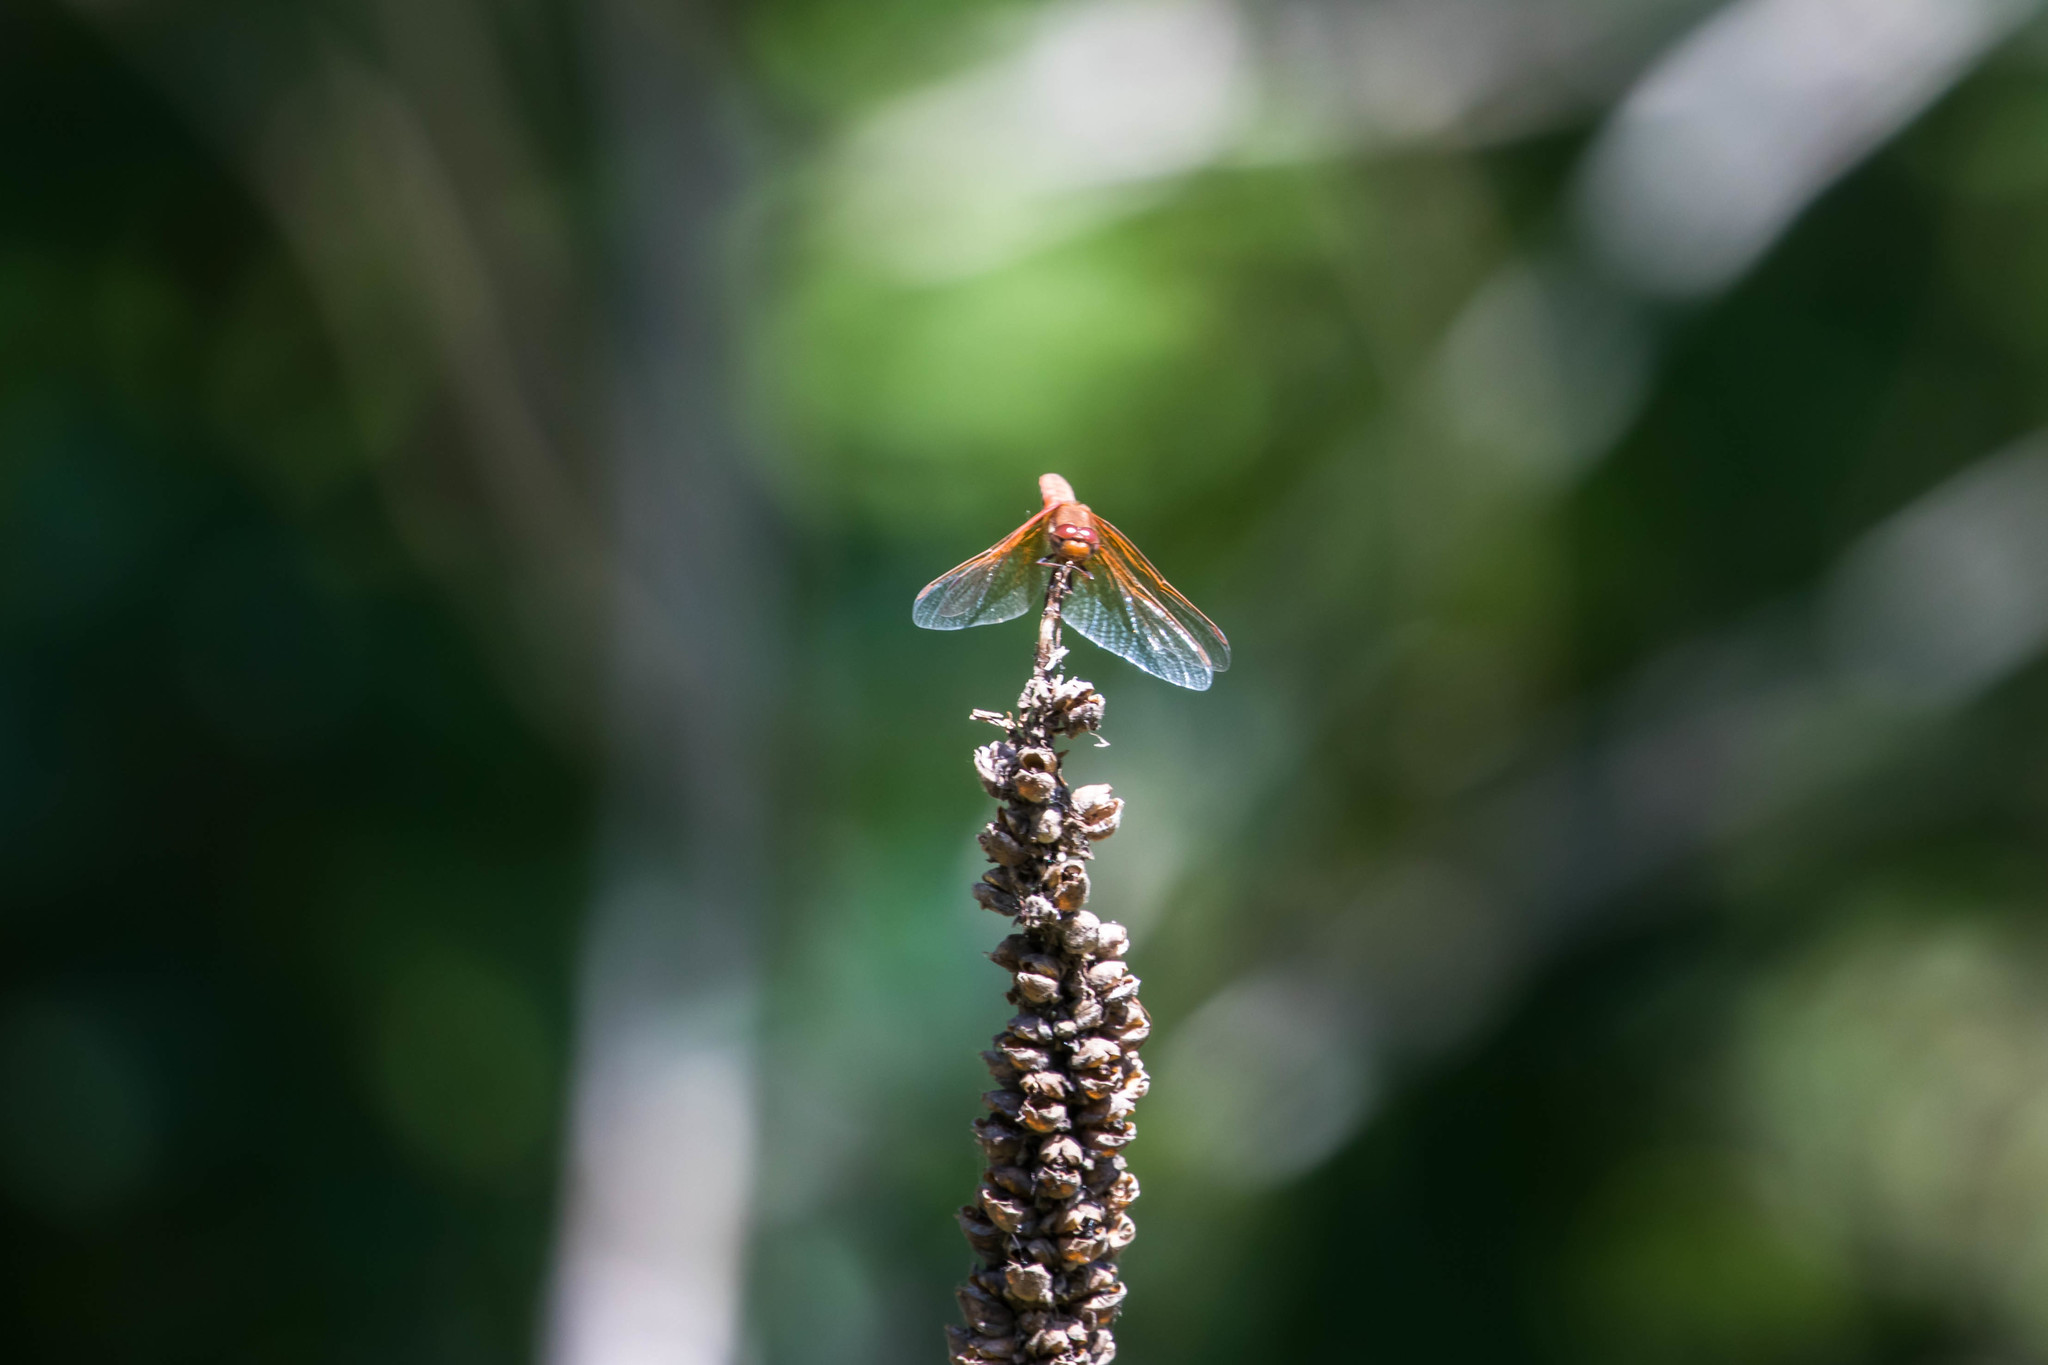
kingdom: Animalia
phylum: Arthropoda
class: Insecta
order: Odonata
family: Libellulidae
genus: Sympetrum
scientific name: Sympetrum illotum
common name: Cardinal meadowhawk
